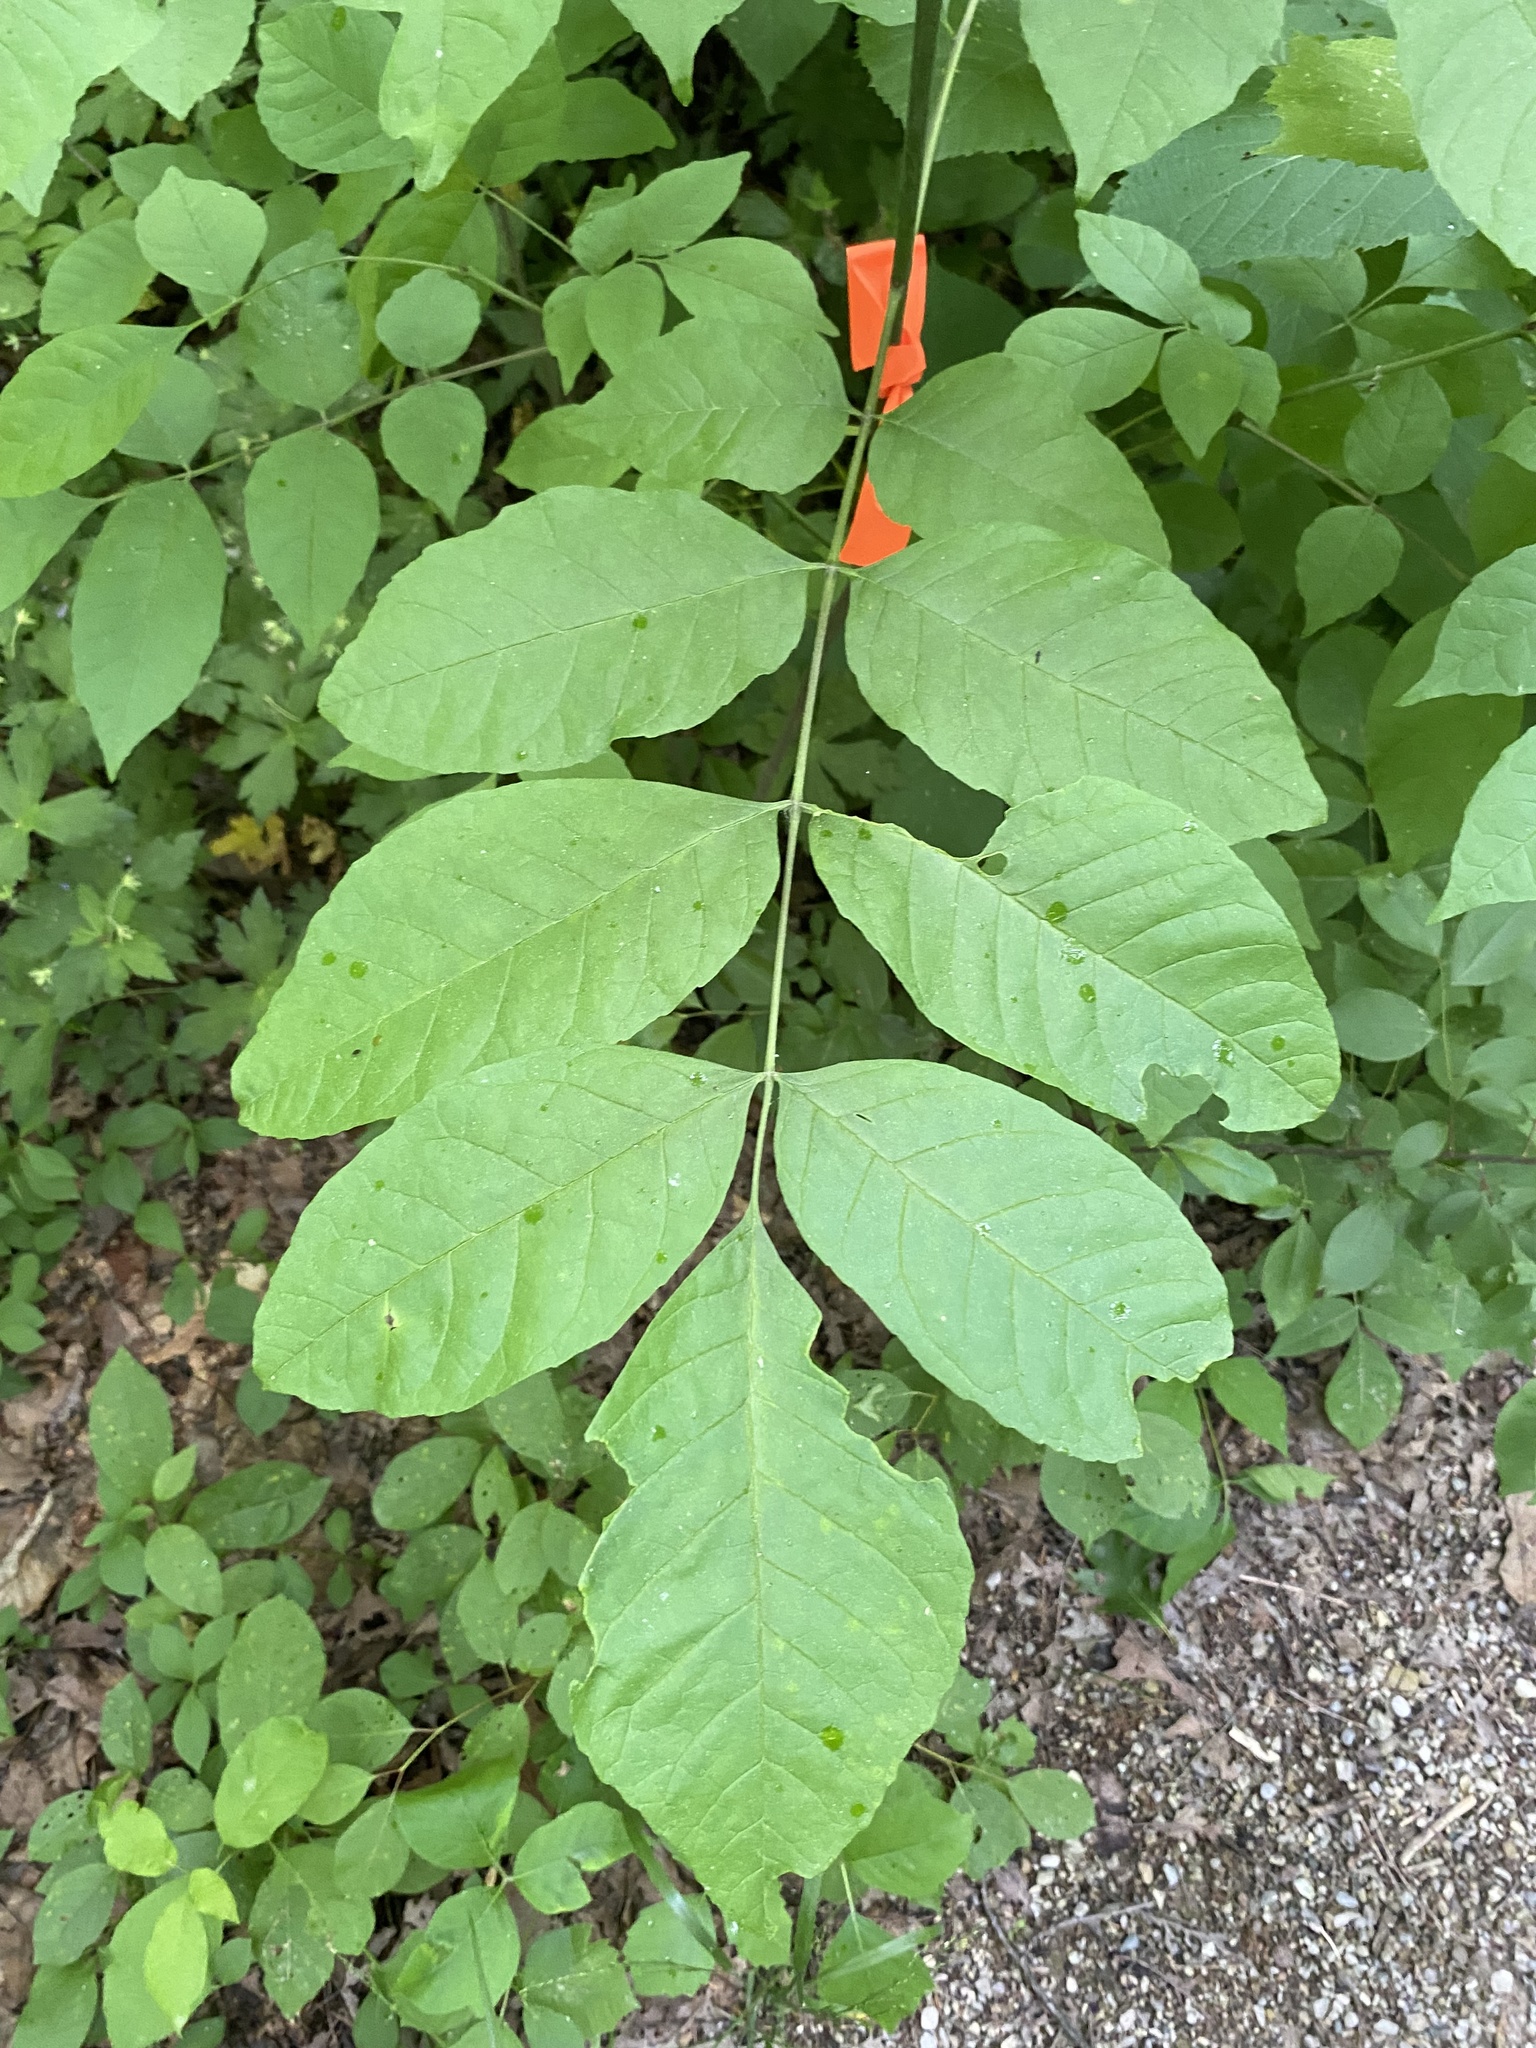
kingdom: Plantae
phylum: Tracheophyta
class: Magnoliopsida
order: Lamiales
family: Oleaceae
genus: Fraxinus
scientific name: Fraxinus americana
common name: White ash
